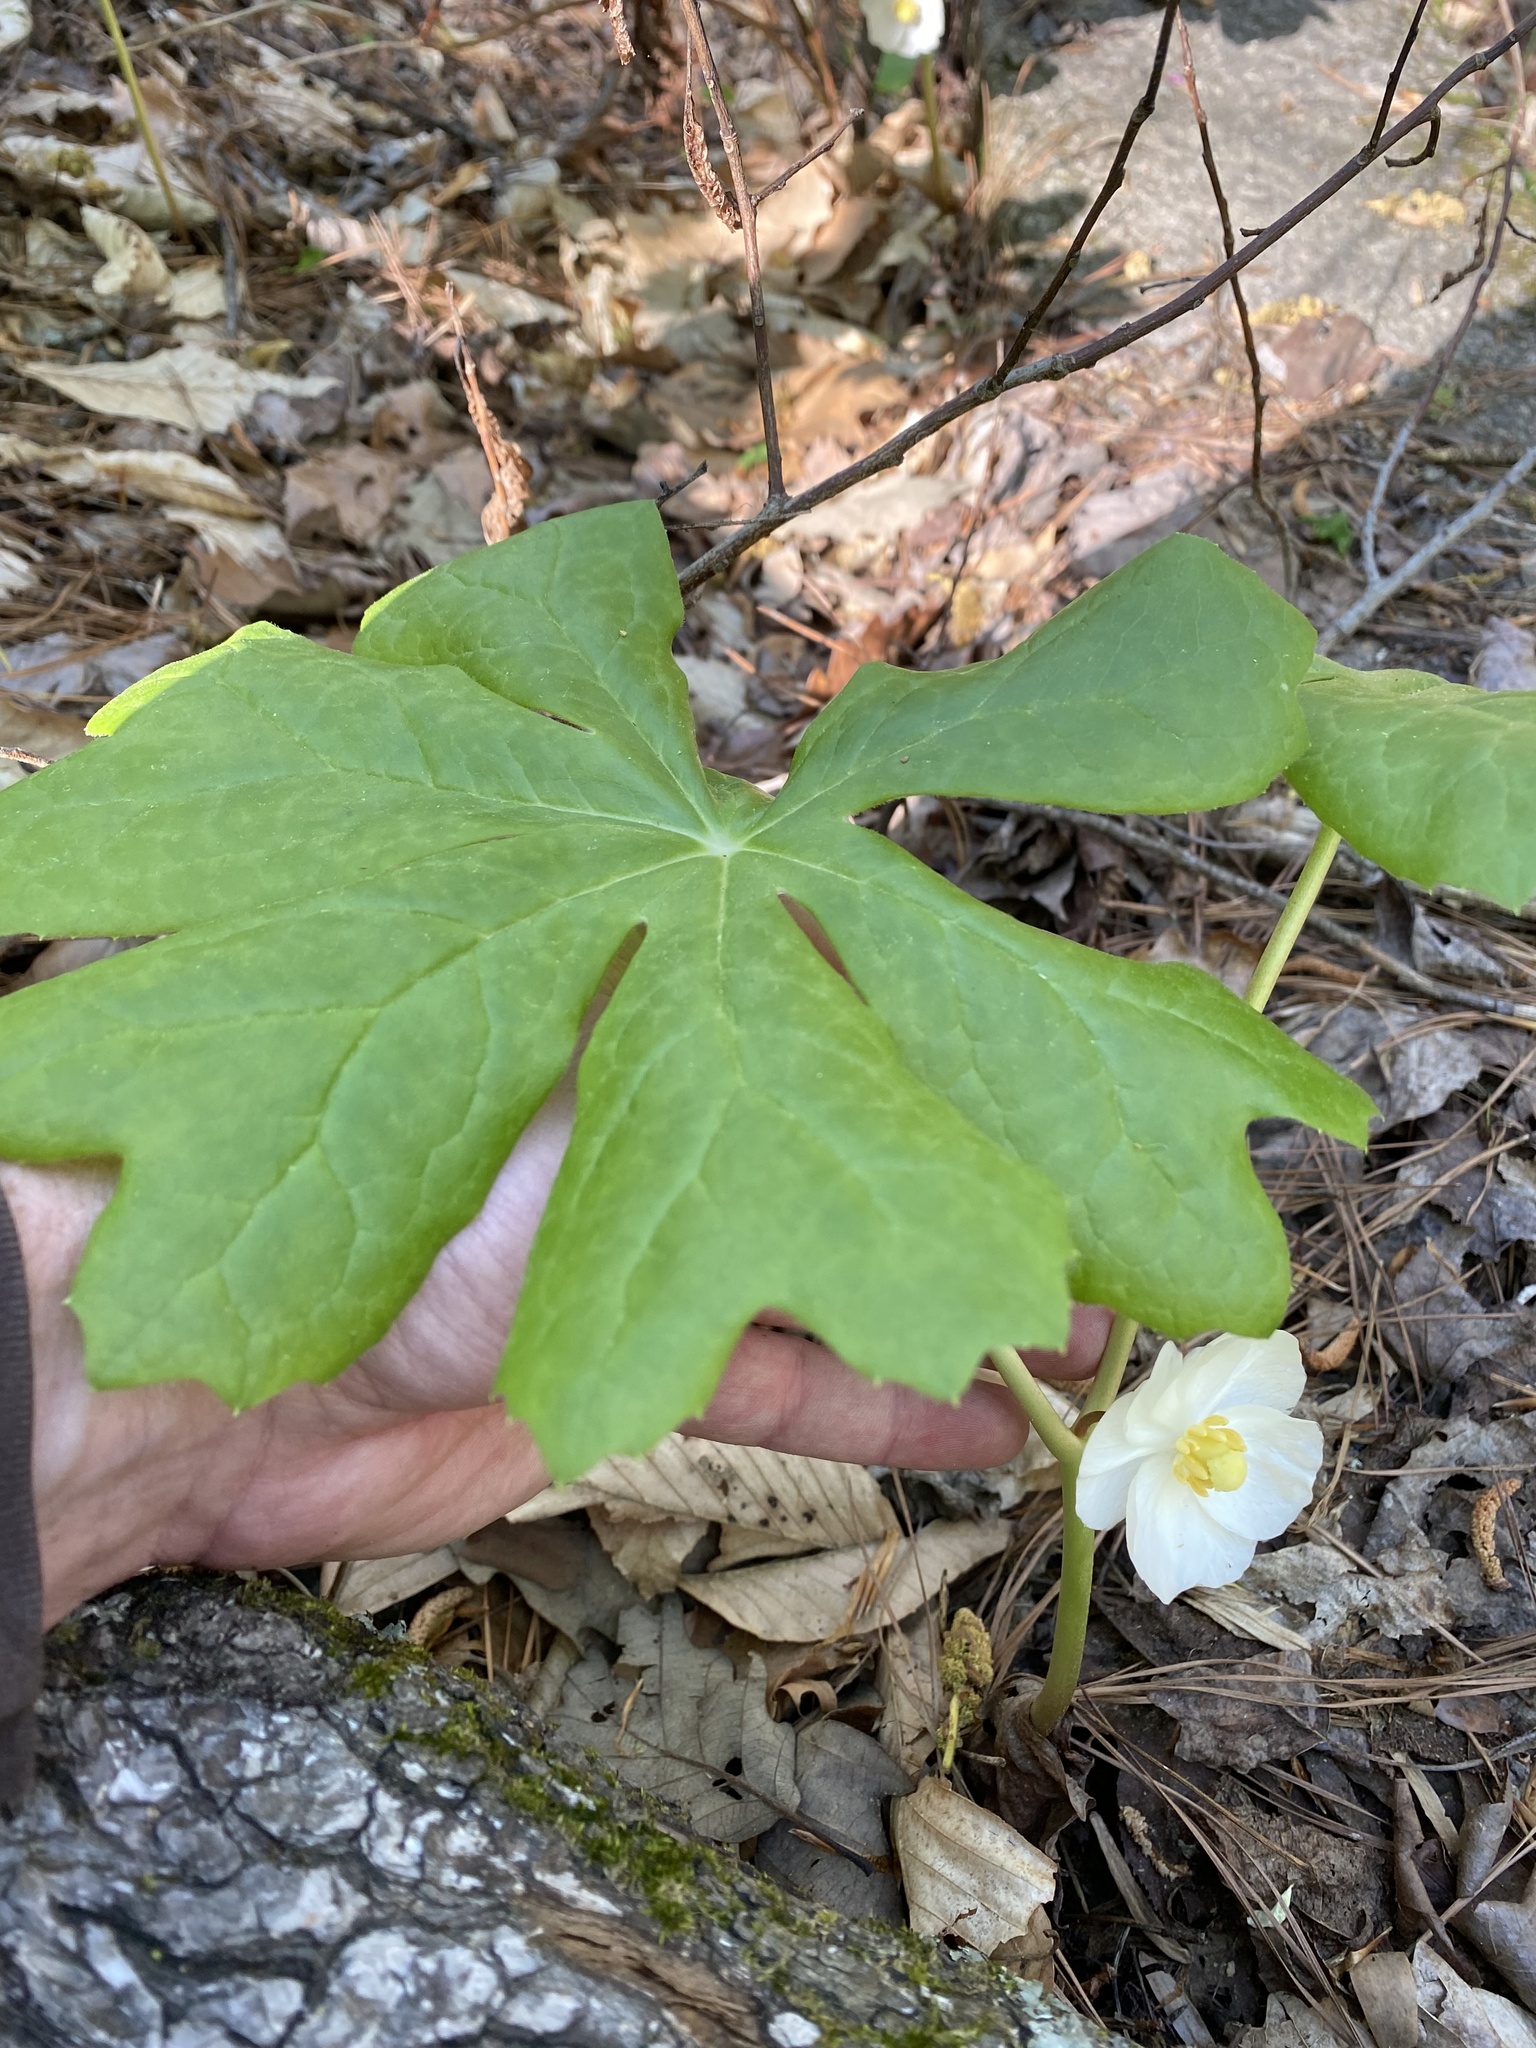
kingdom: Plantae
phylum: Tracheophyta
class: Magnoliopsida
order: Ranunculales
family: Berberidaceae
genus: Podophyllum
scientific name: Podophyllum peltatum
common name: Wild mandrake
